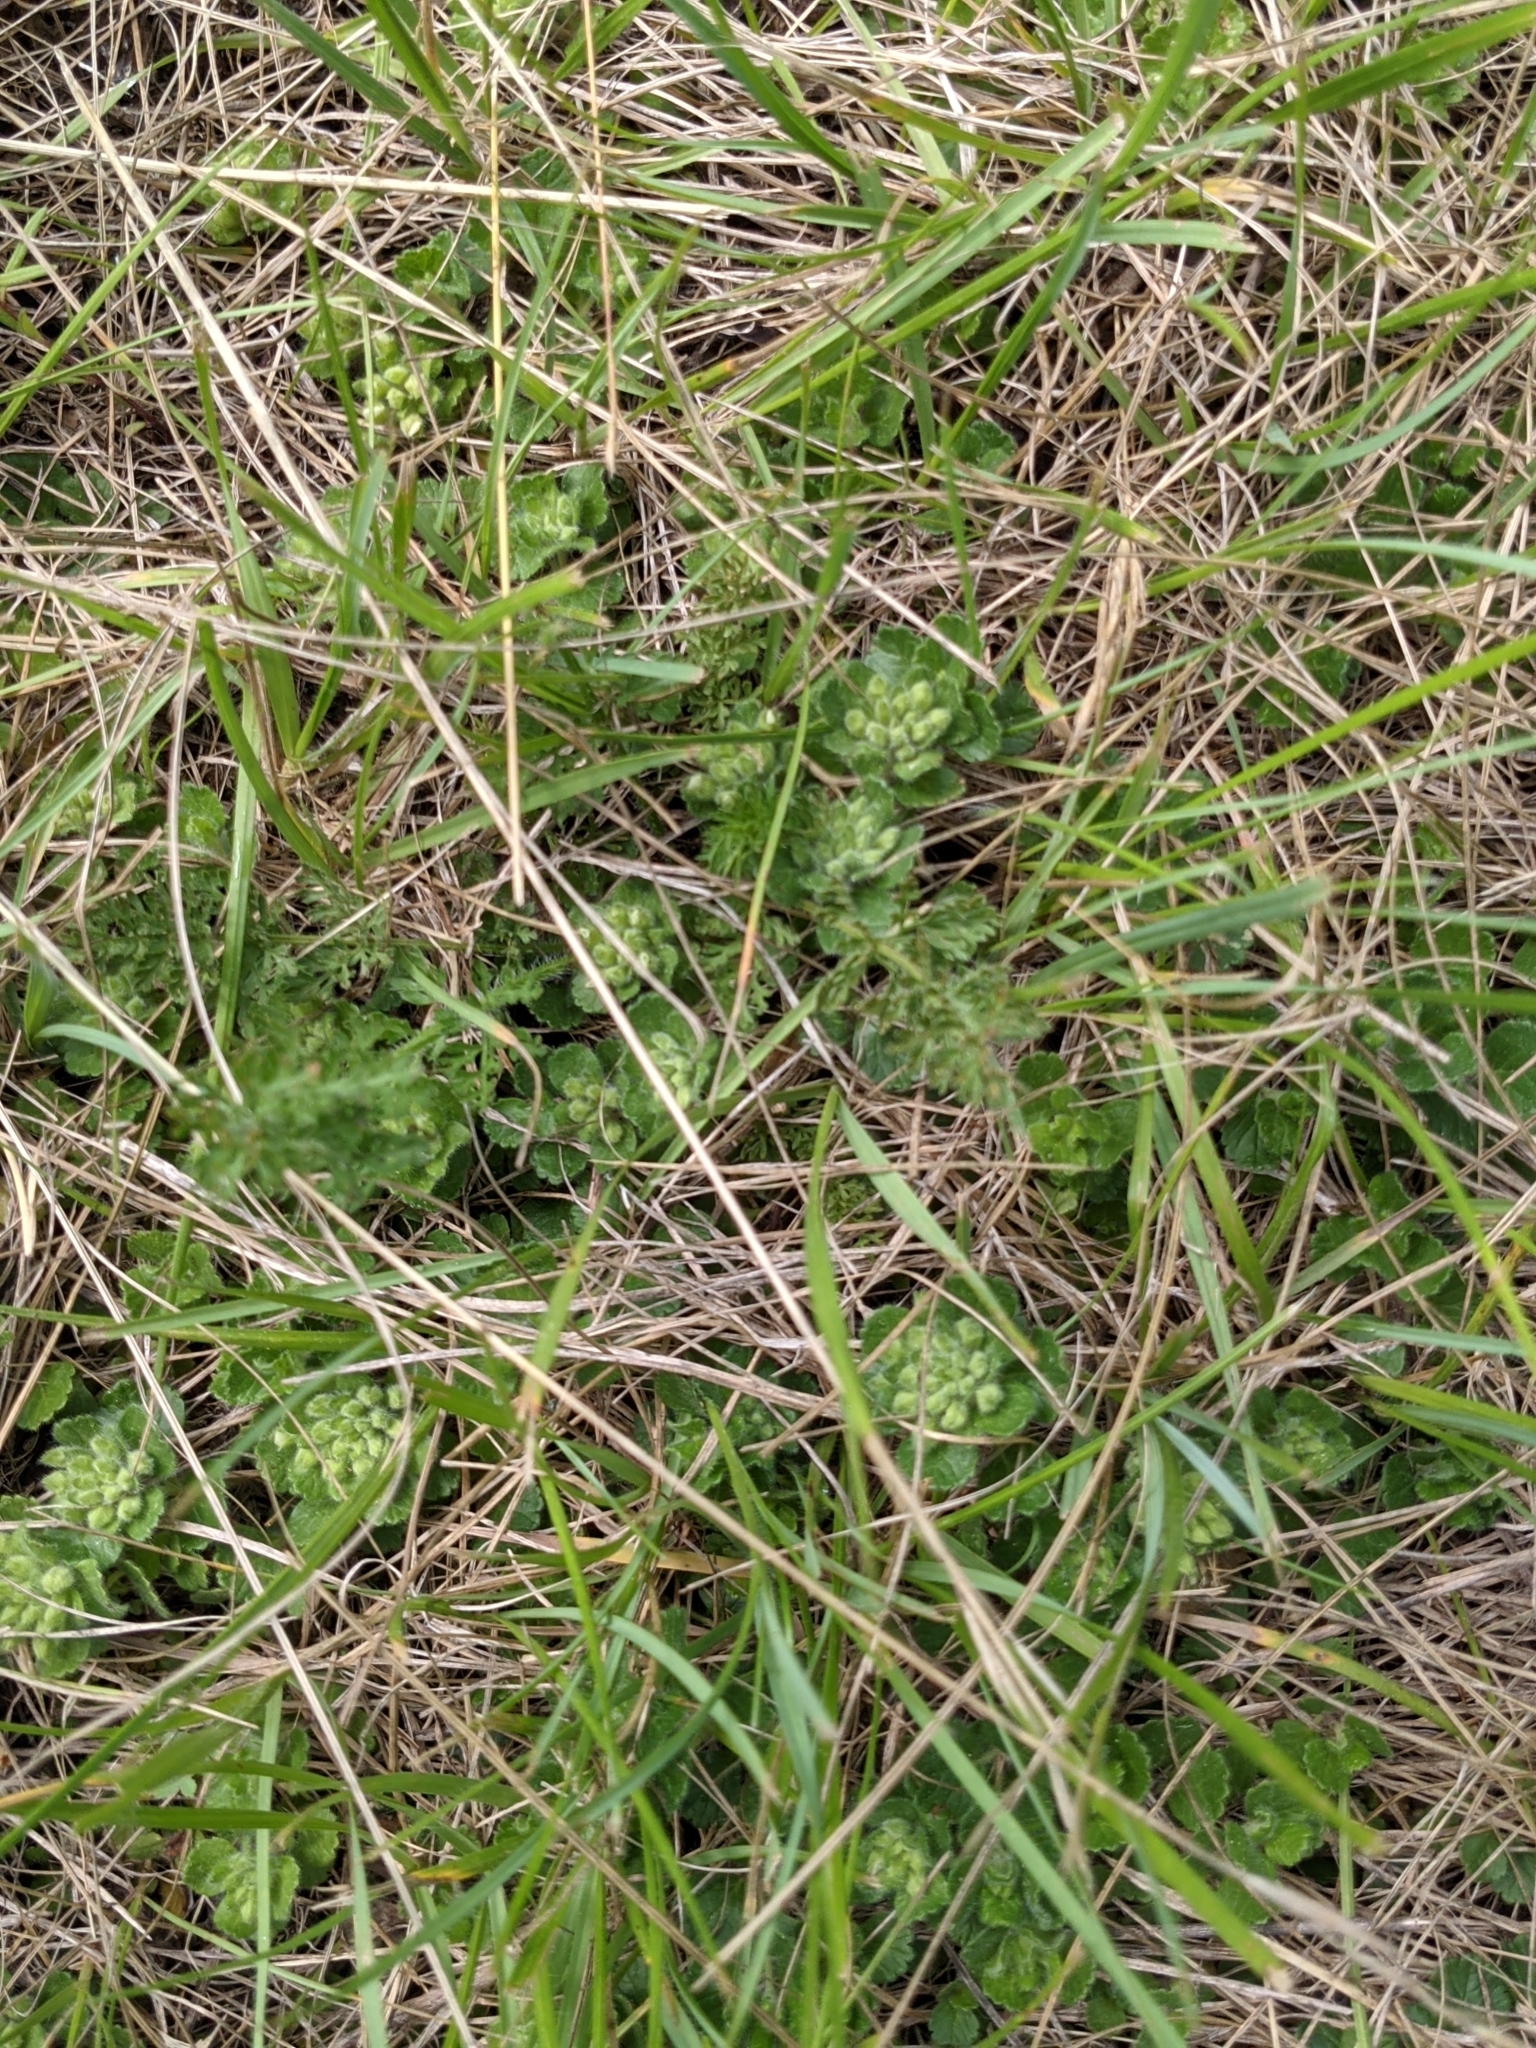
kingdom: Plantae
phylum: Tracheophyta
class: Magnoliopsida
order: Lamiales
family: Lamiaceae
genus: Teucrium
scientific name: Teucrium pyrenaicum
